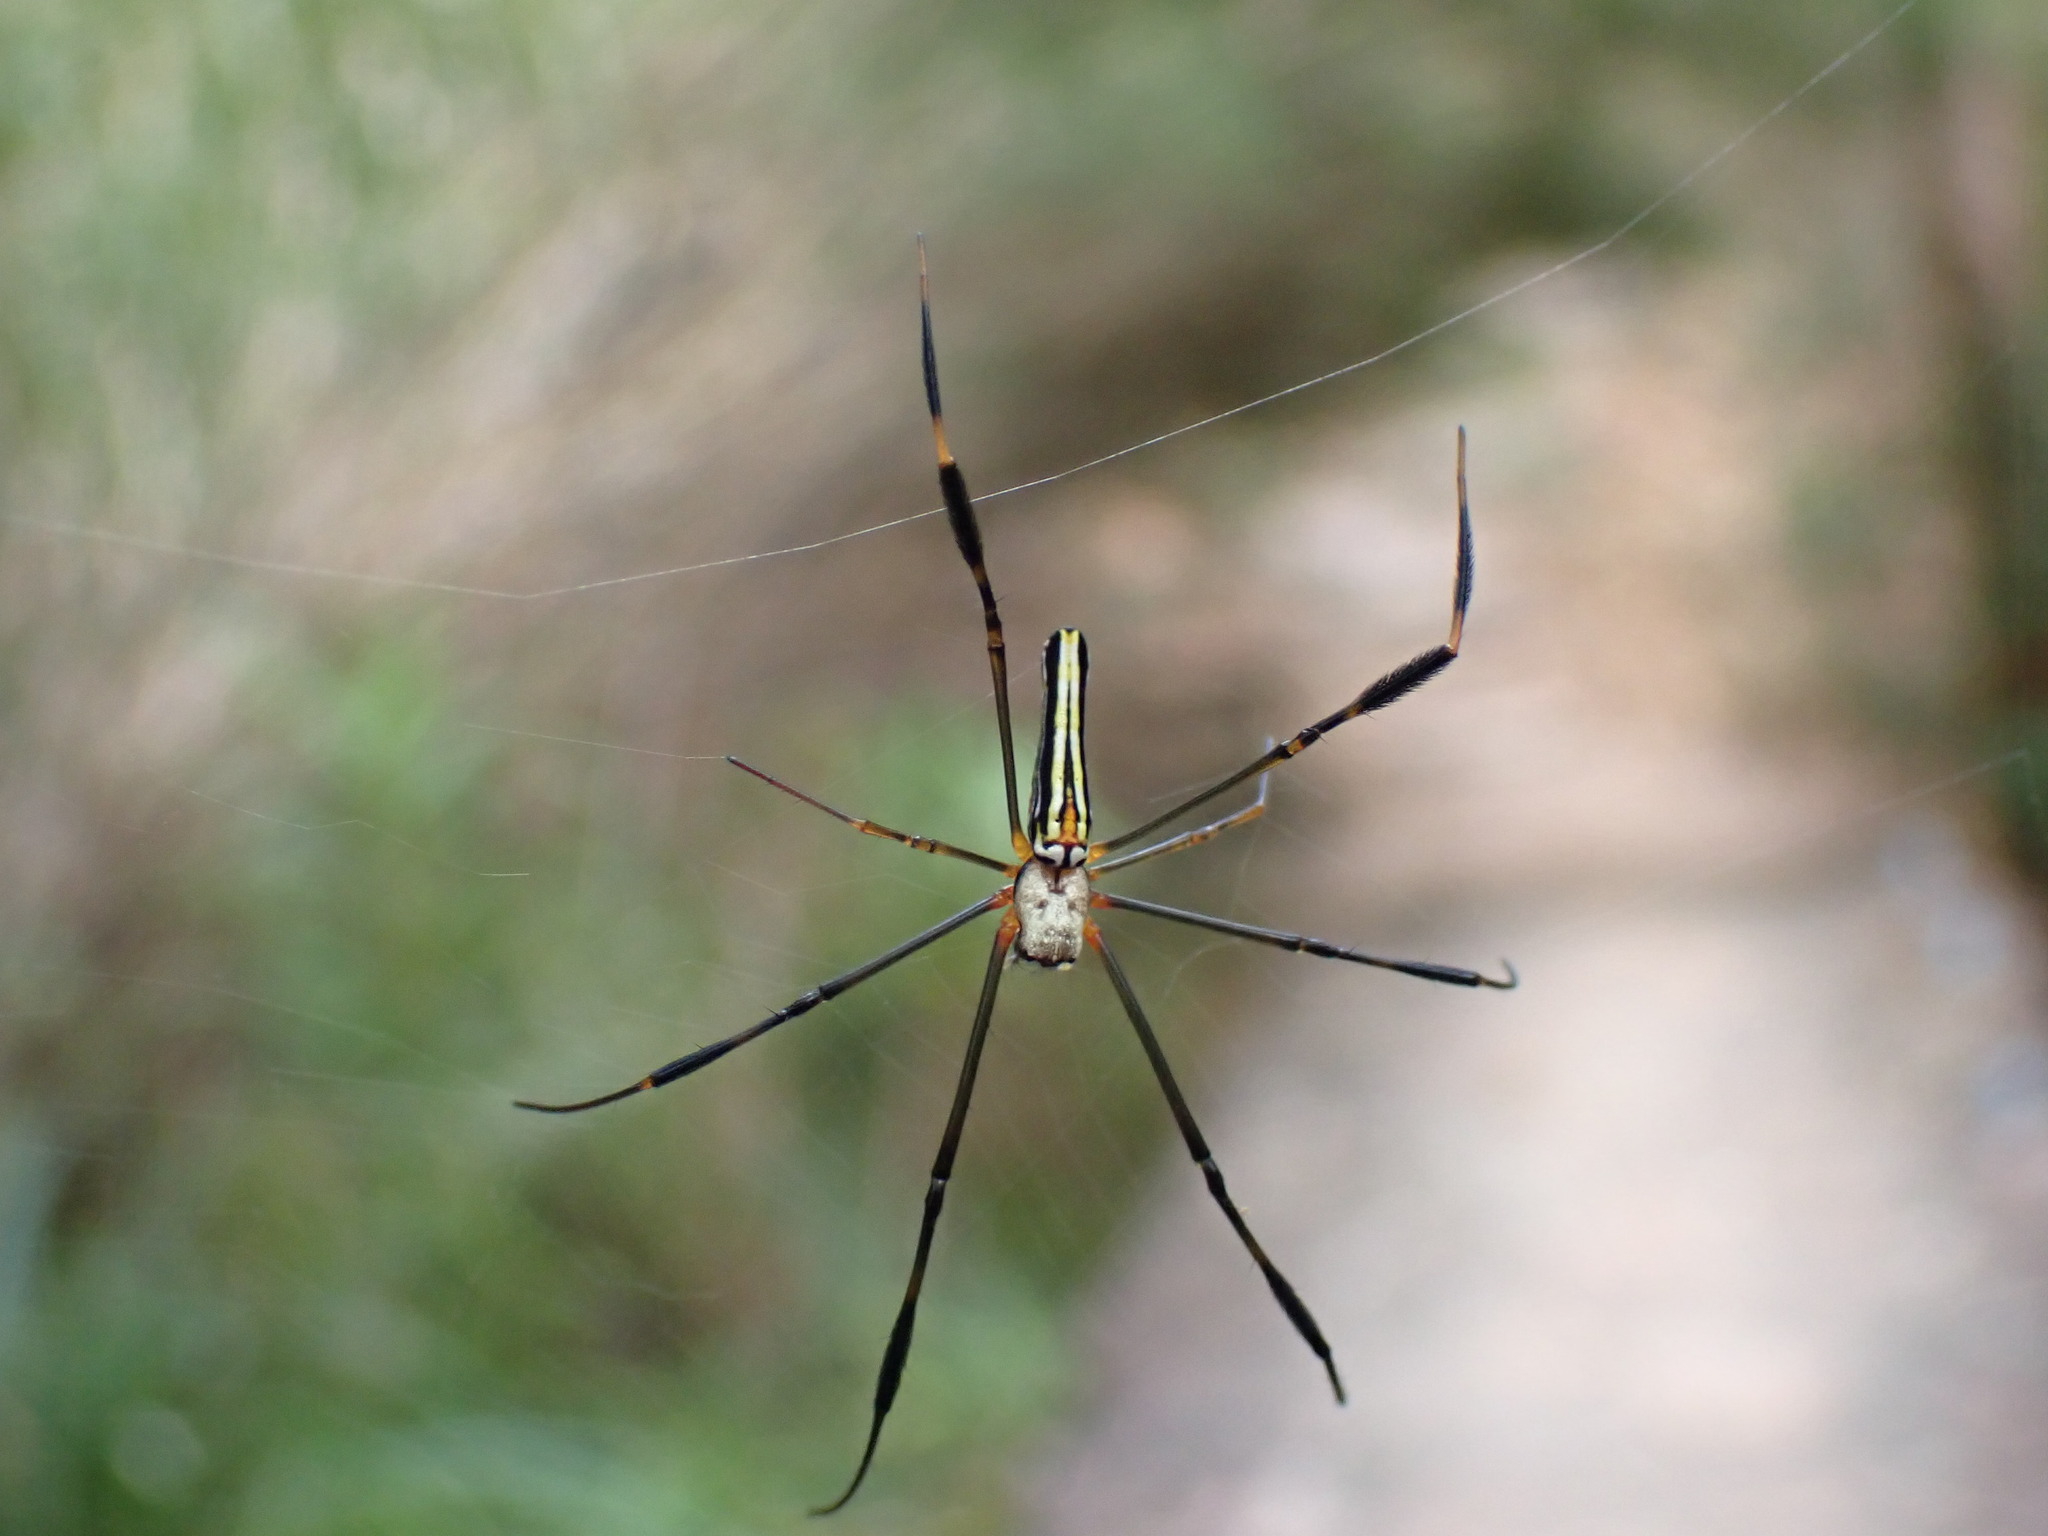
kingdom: Animalia
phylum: Arthropoda
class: Arachnida
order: Araneae
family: Araneidae
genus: Nephila
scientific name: Nephila pilipes
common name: Giant golden orb weaver
